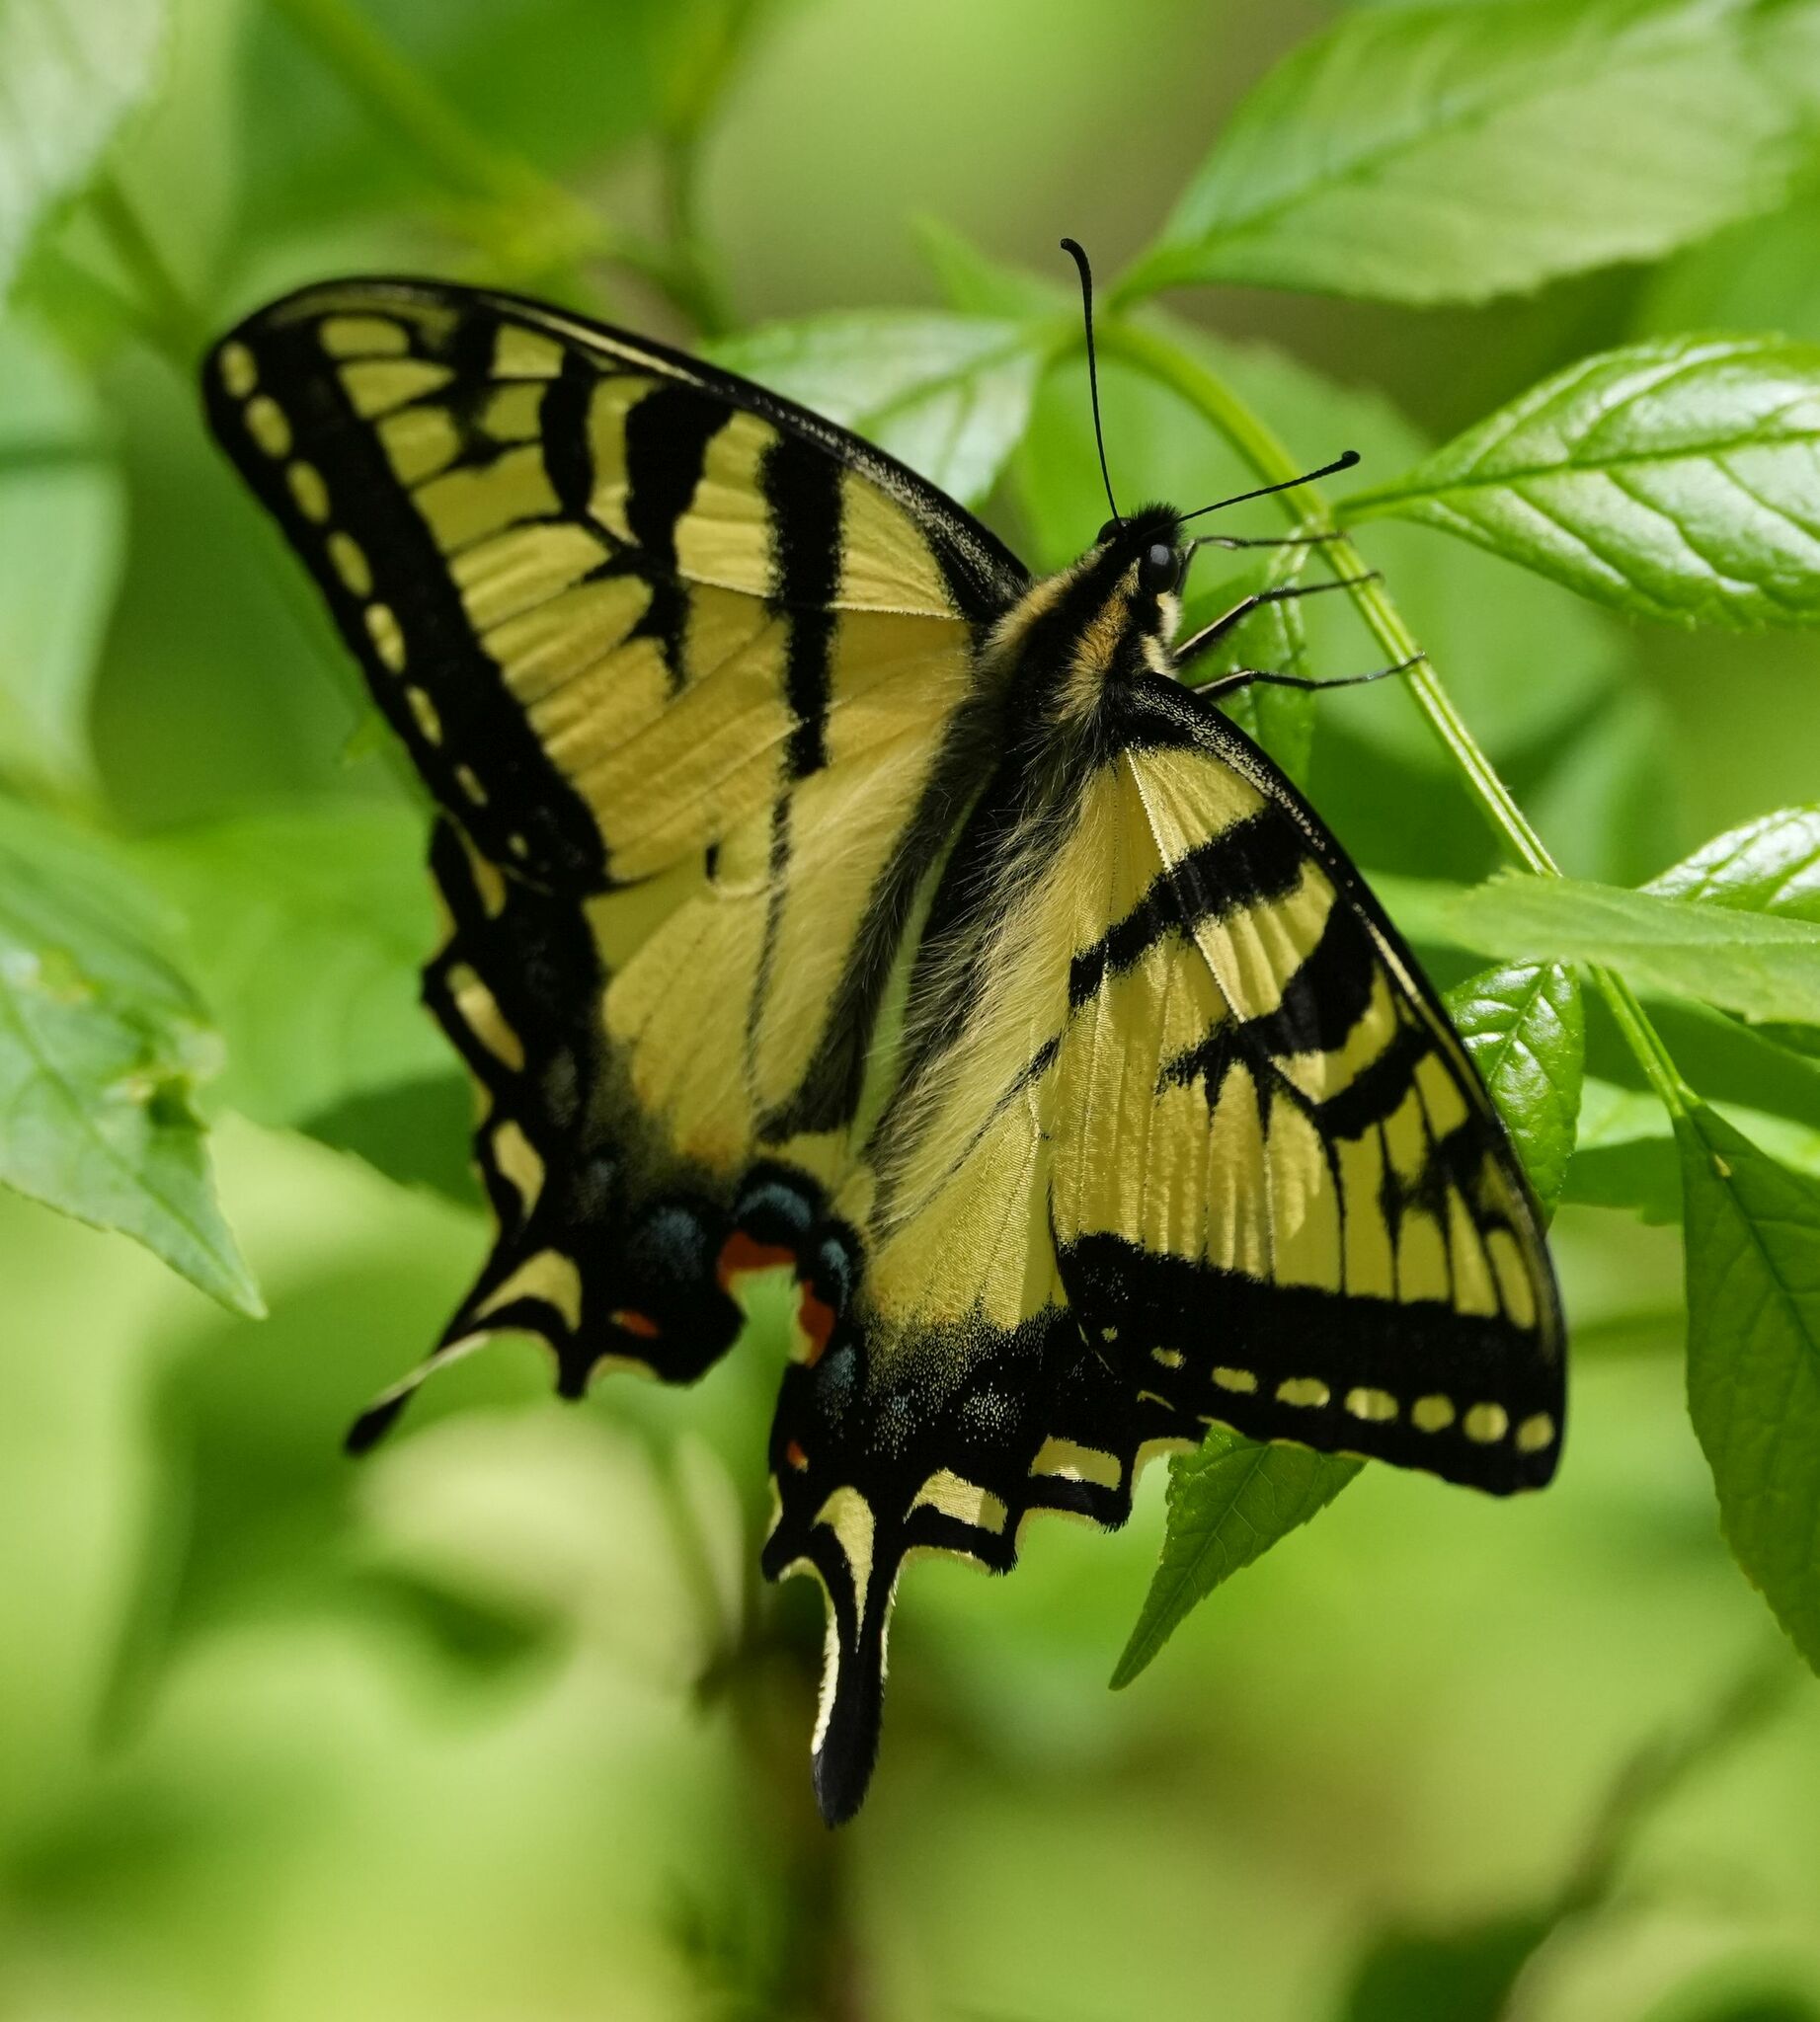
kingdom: Animalia
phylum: Arthropoda
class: Insecta
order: Lepidoptera
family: Papilionidae
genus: Papilio
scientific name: Papilio canadensis
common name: Canadian tiger swallowtail
